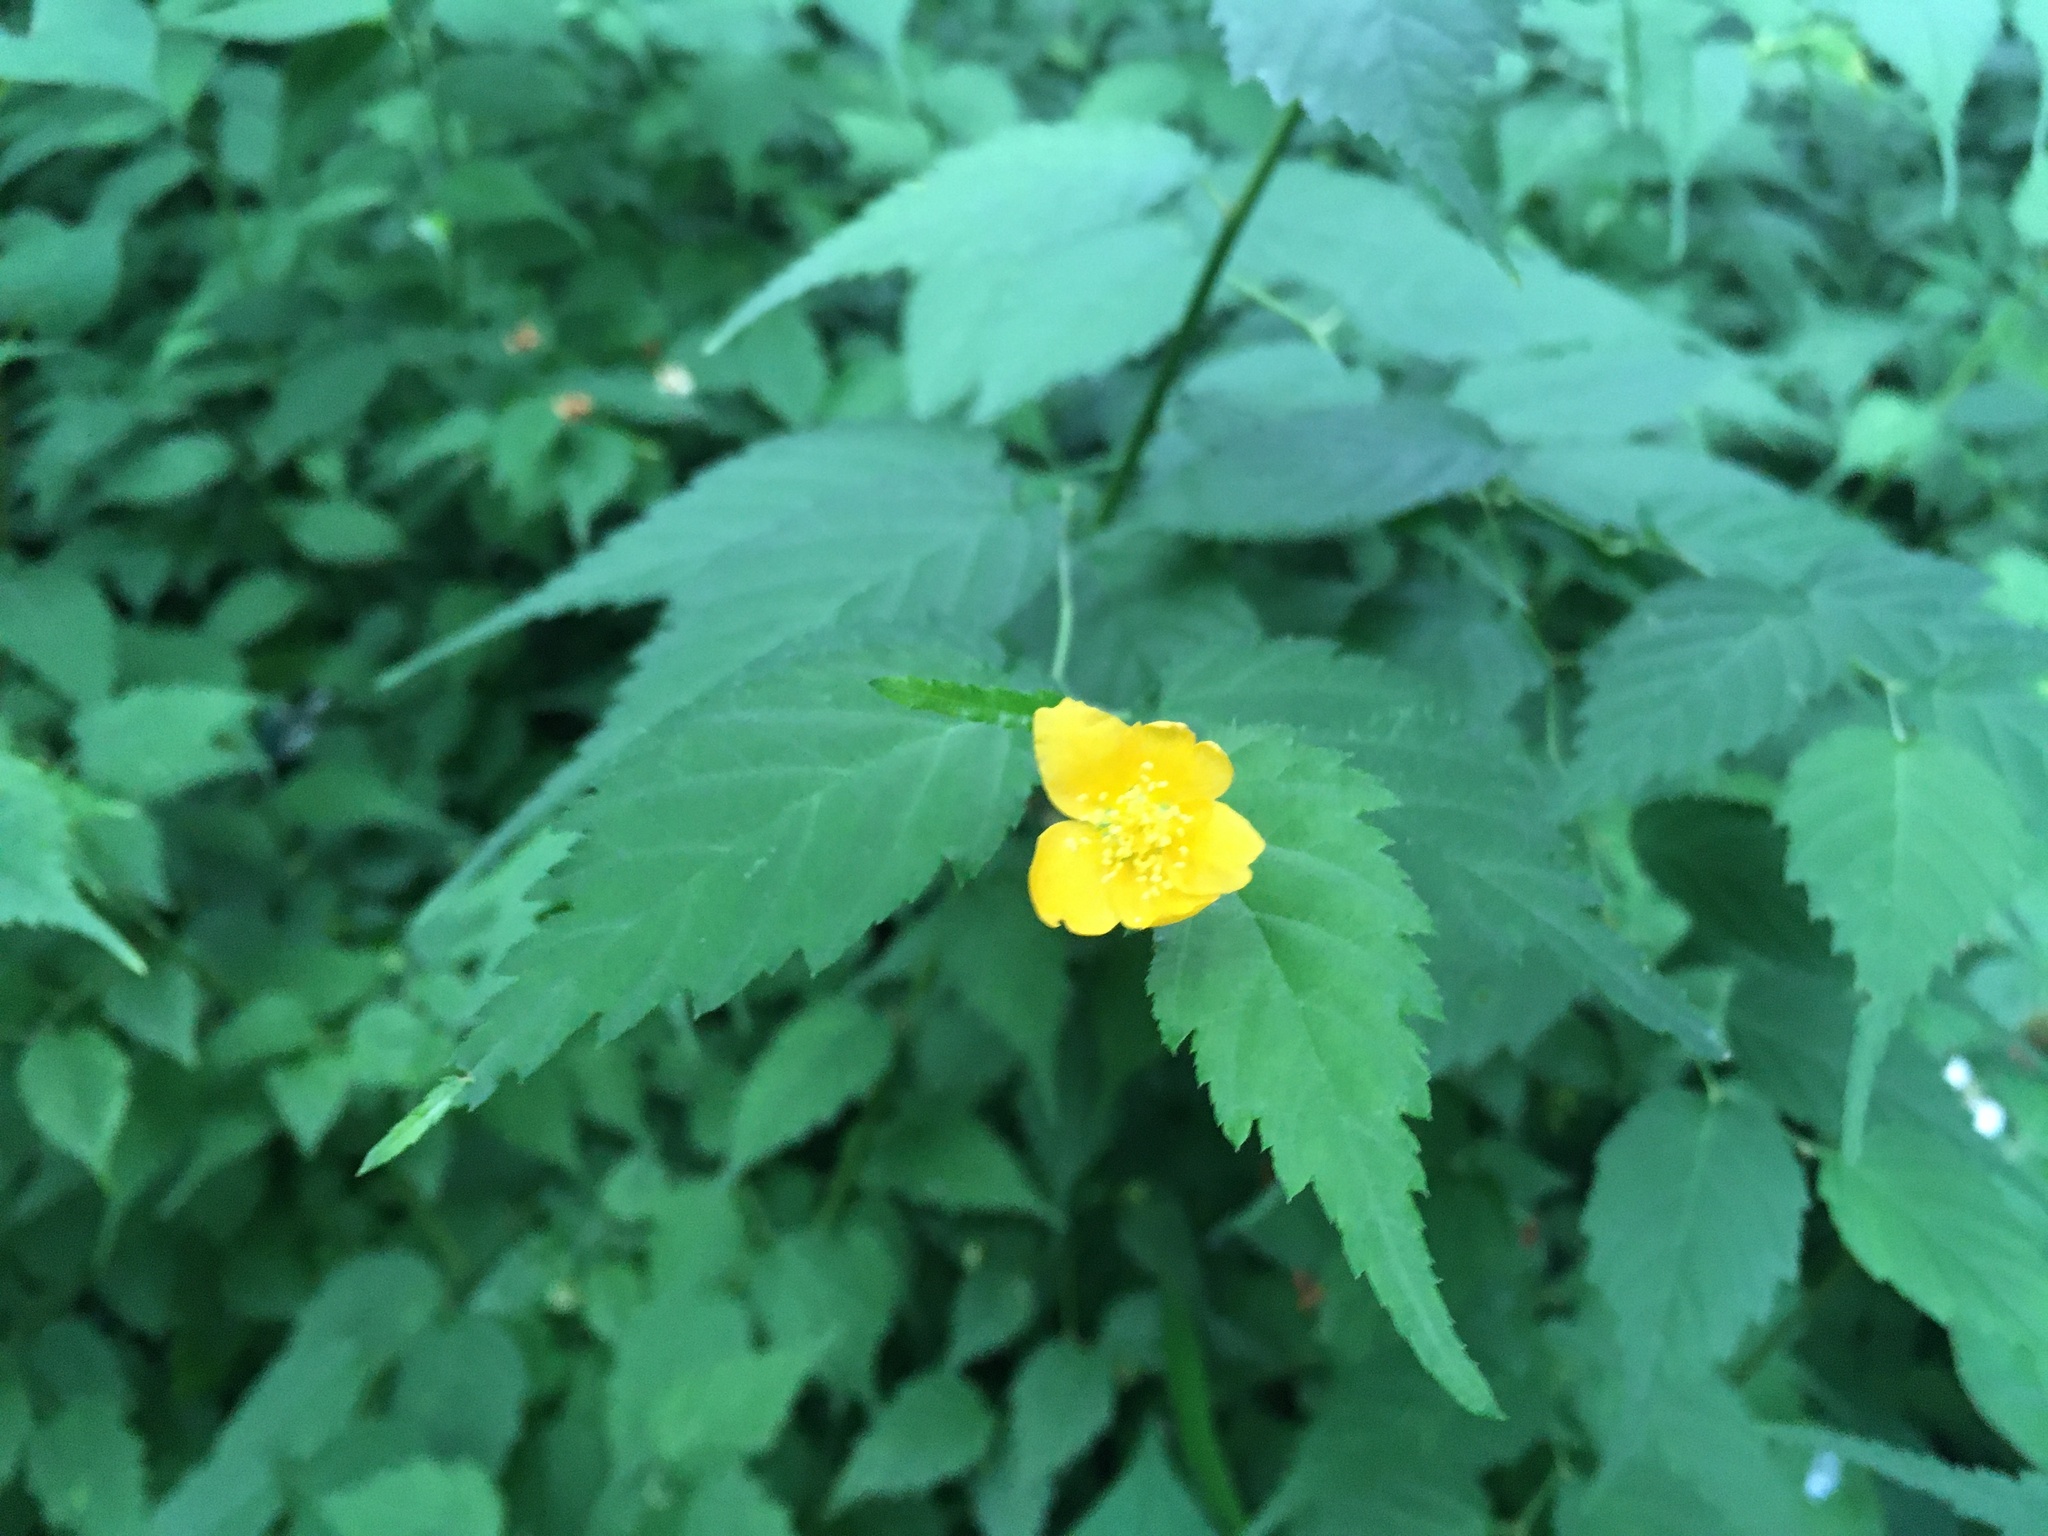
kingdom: Plantae
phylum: Tracheophyta
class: Magnoliopsida
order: Rosales
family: Rosaceae
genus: Kerria
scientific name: Kerria japonica
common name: Japanese kerria
